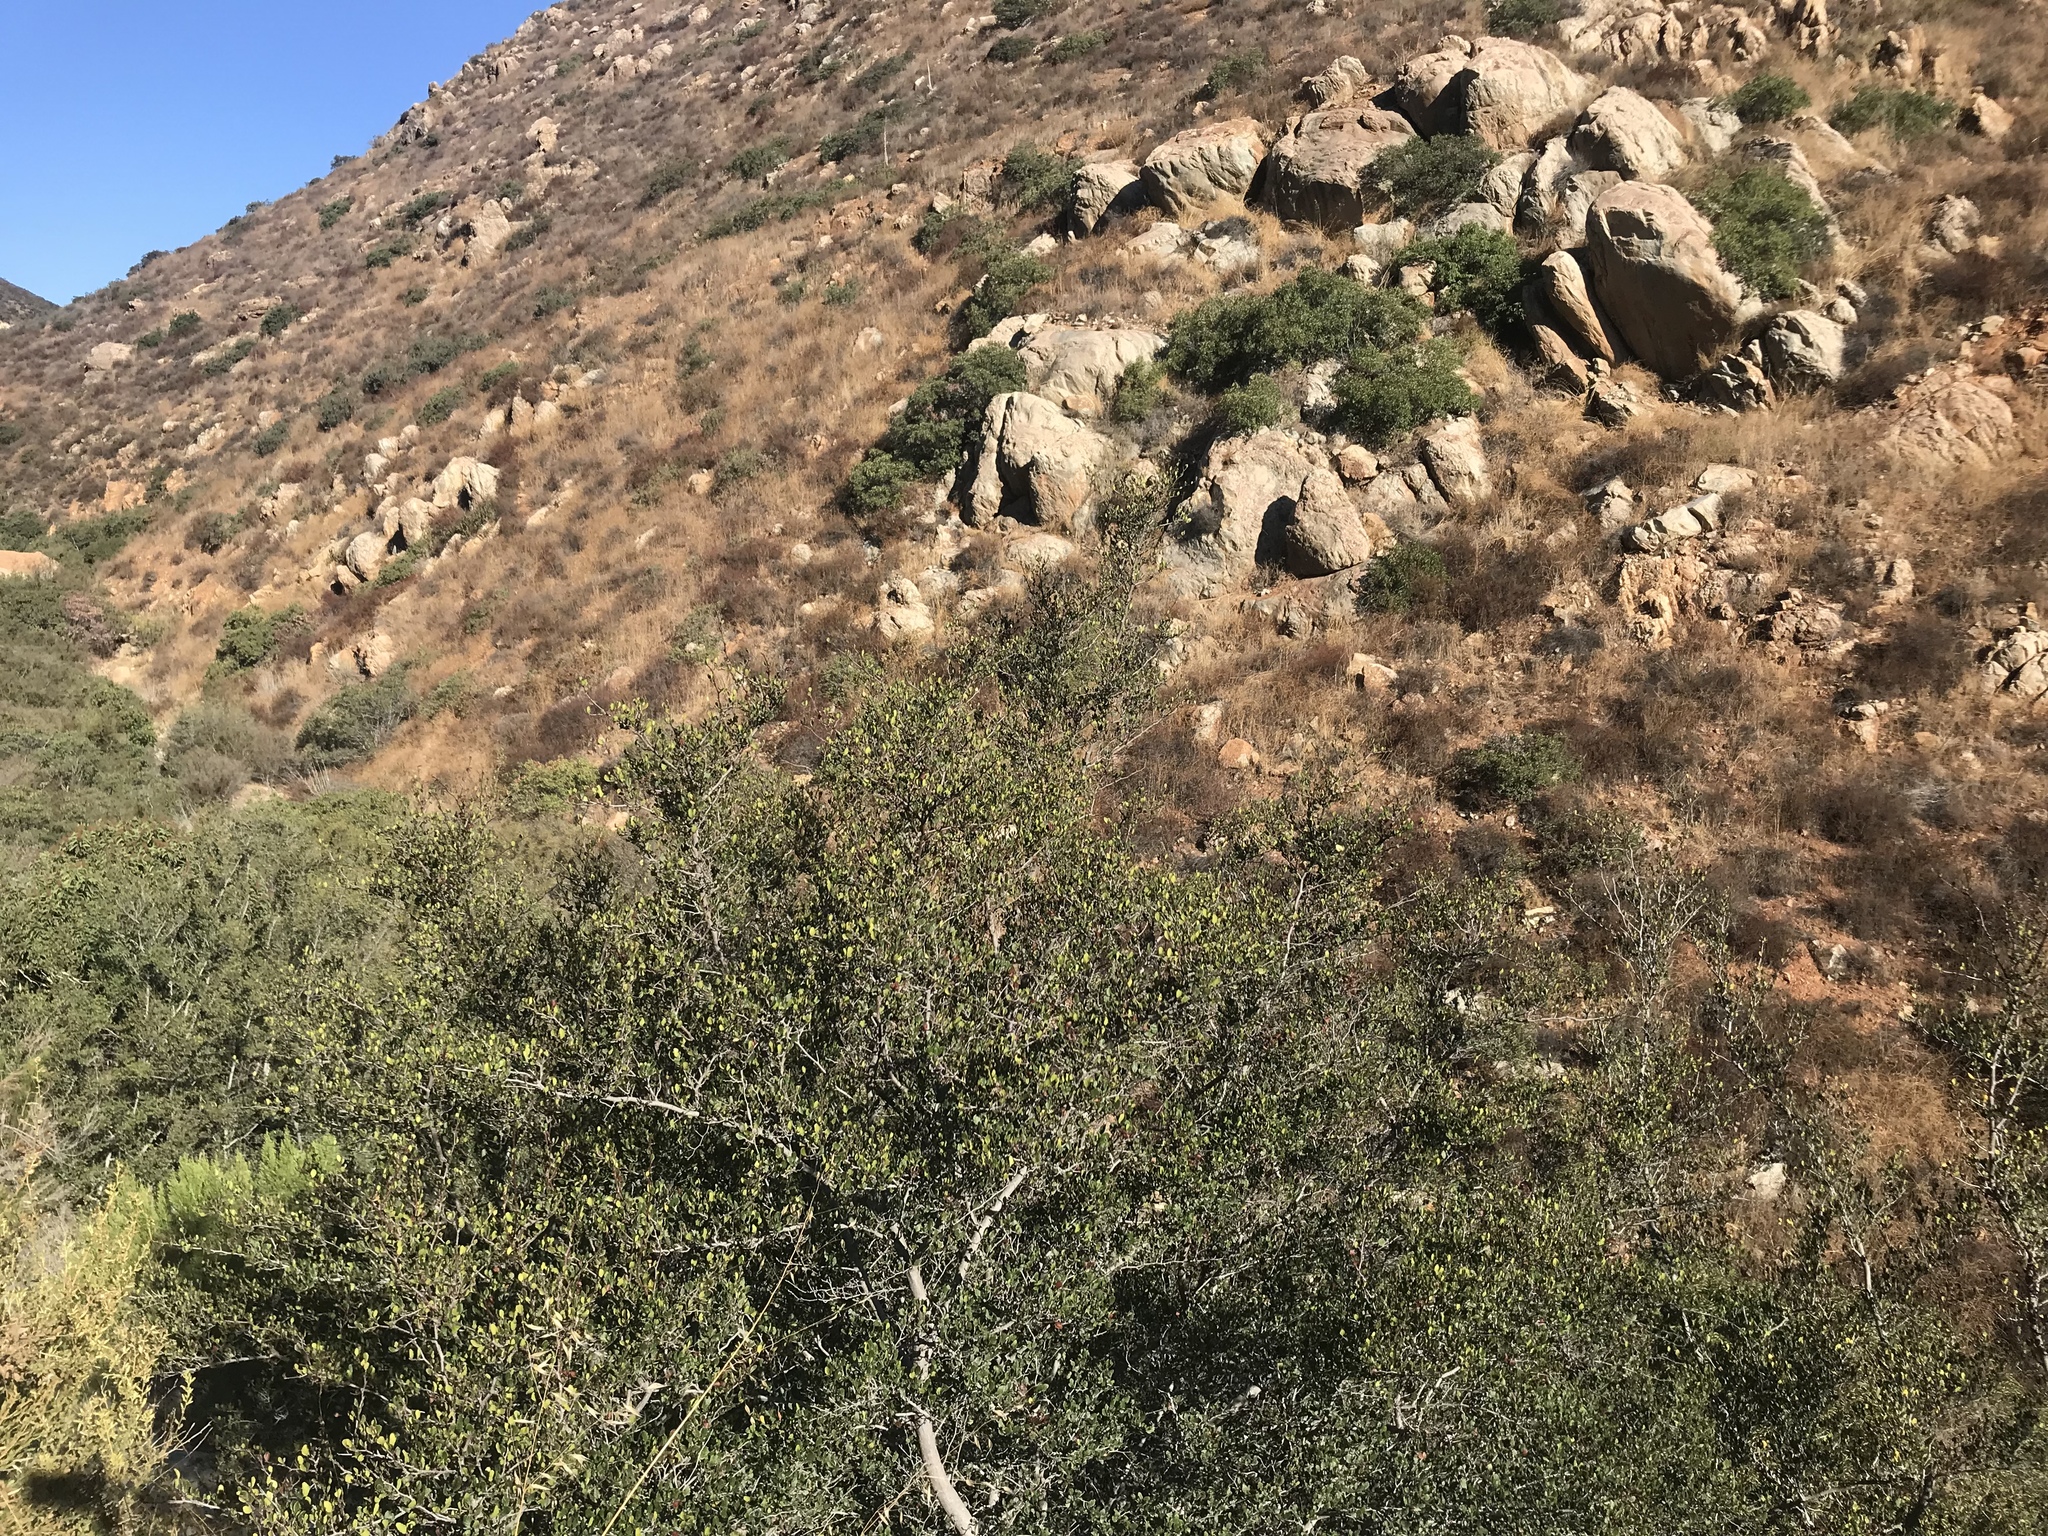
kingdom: Plantae
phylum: Tracheophyta
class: Magnoliopsida
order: Fagales
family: Fagaceae
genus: Quercus
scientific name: Quercus cedrosensis
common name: Cedros island oak
